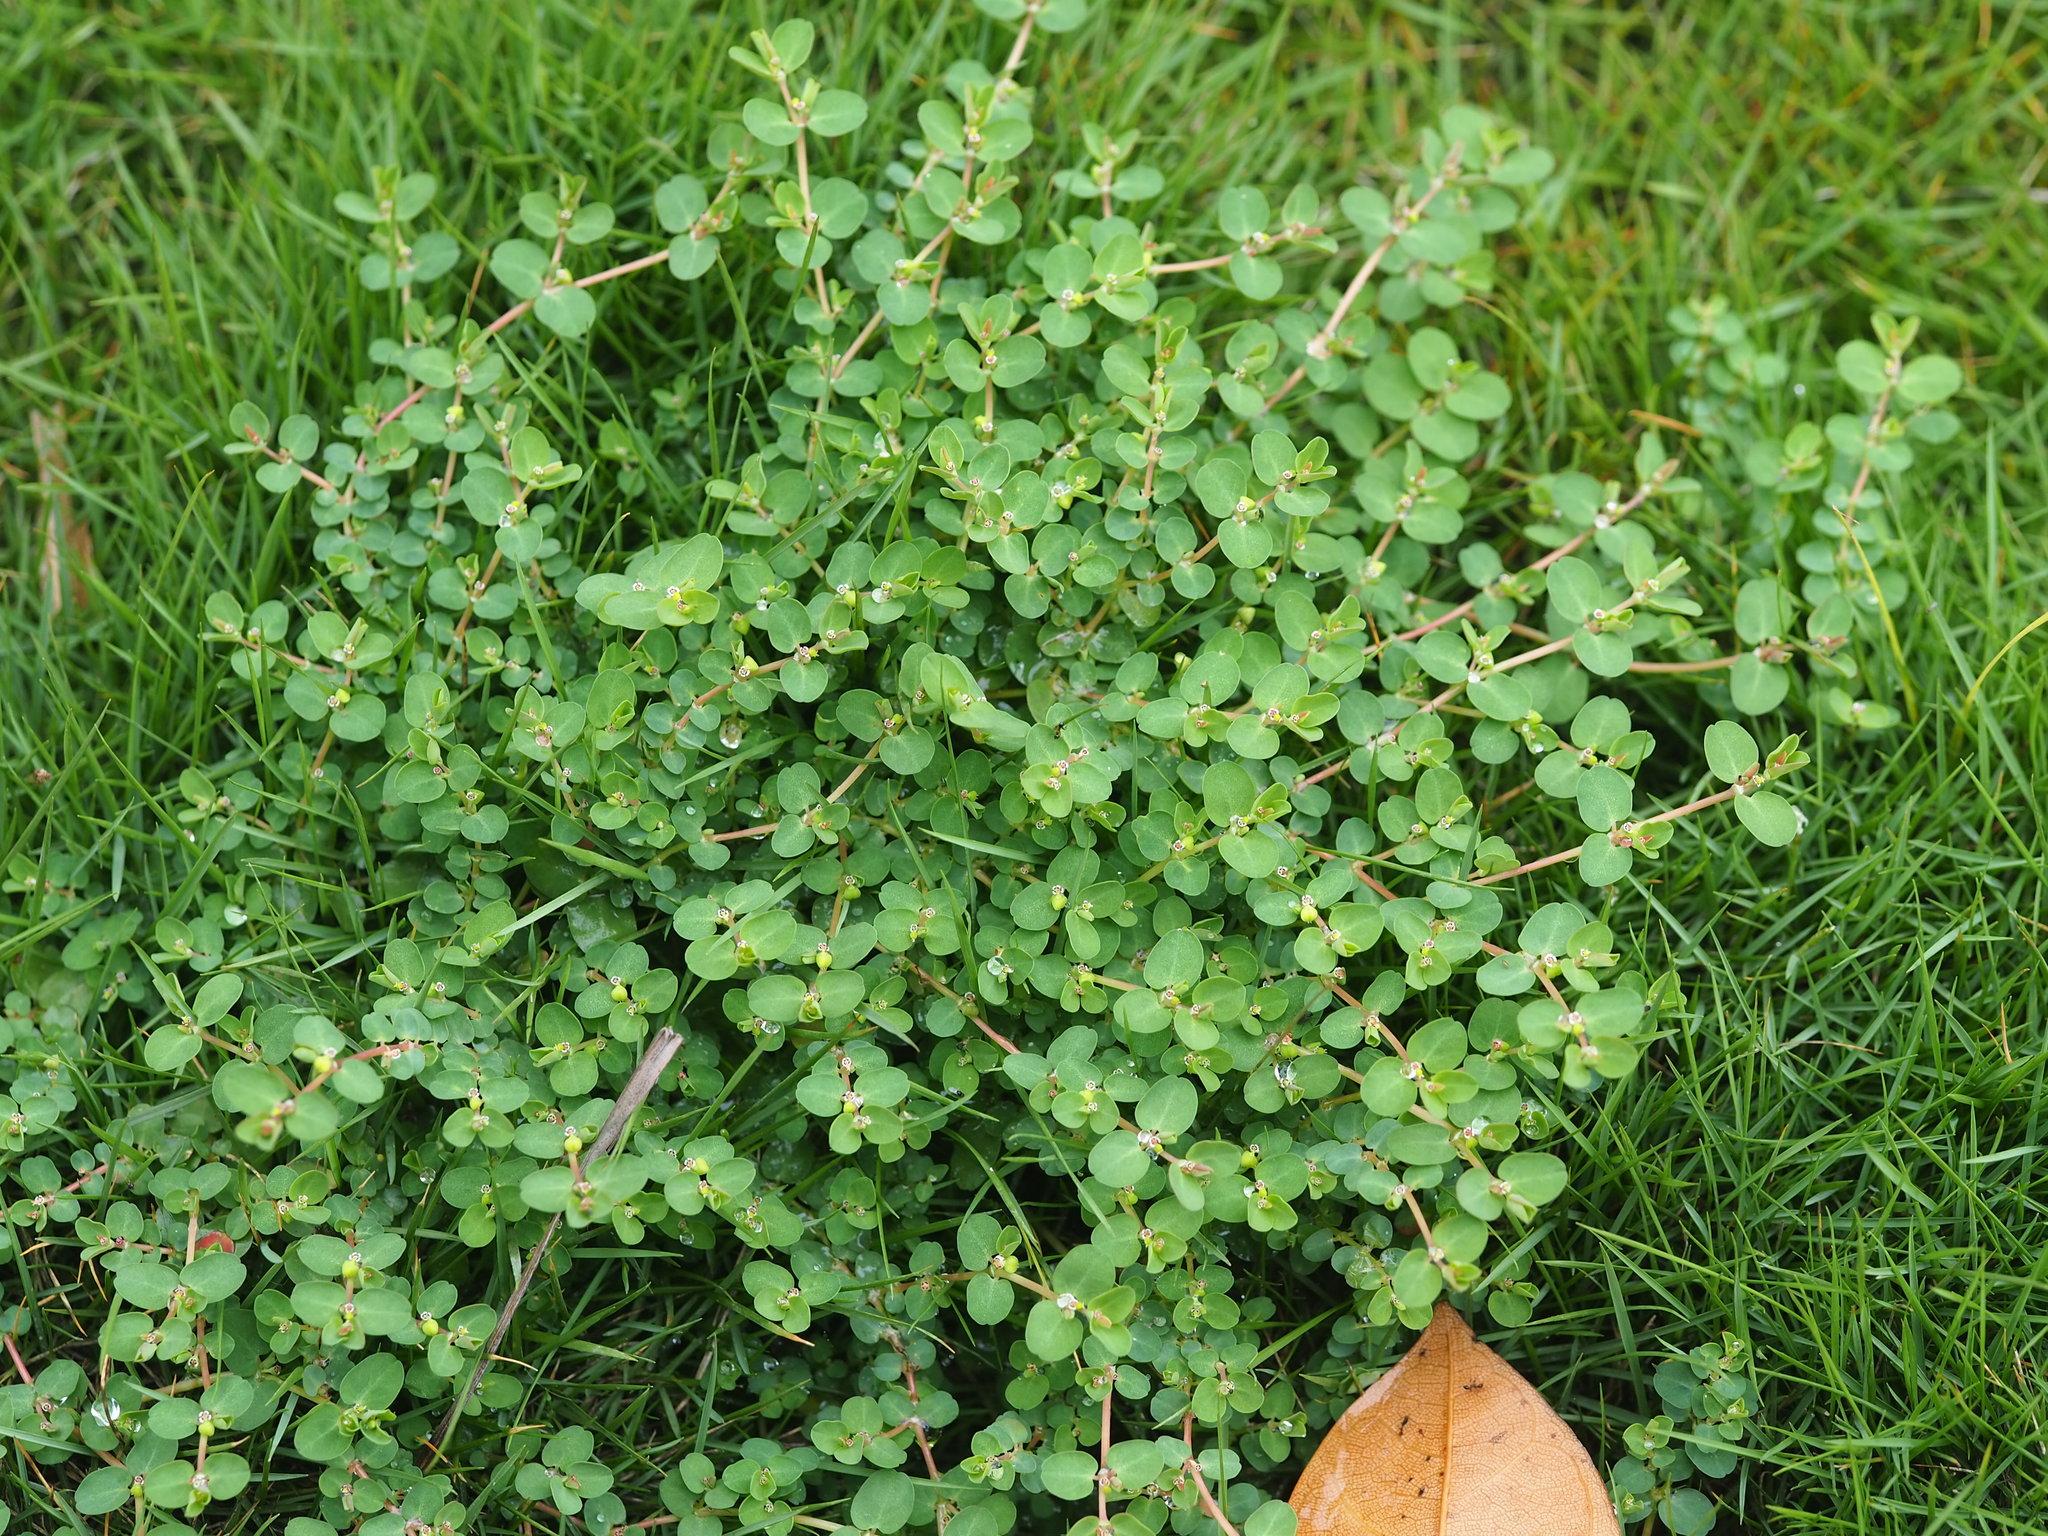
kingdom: Plantae
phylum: Tracheophyta
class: Magnoliopsida
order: Malpighiales
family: Euphorbiaceae
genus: Euphorbia
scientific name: Euphorbia serpens
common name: Matted sandmat
